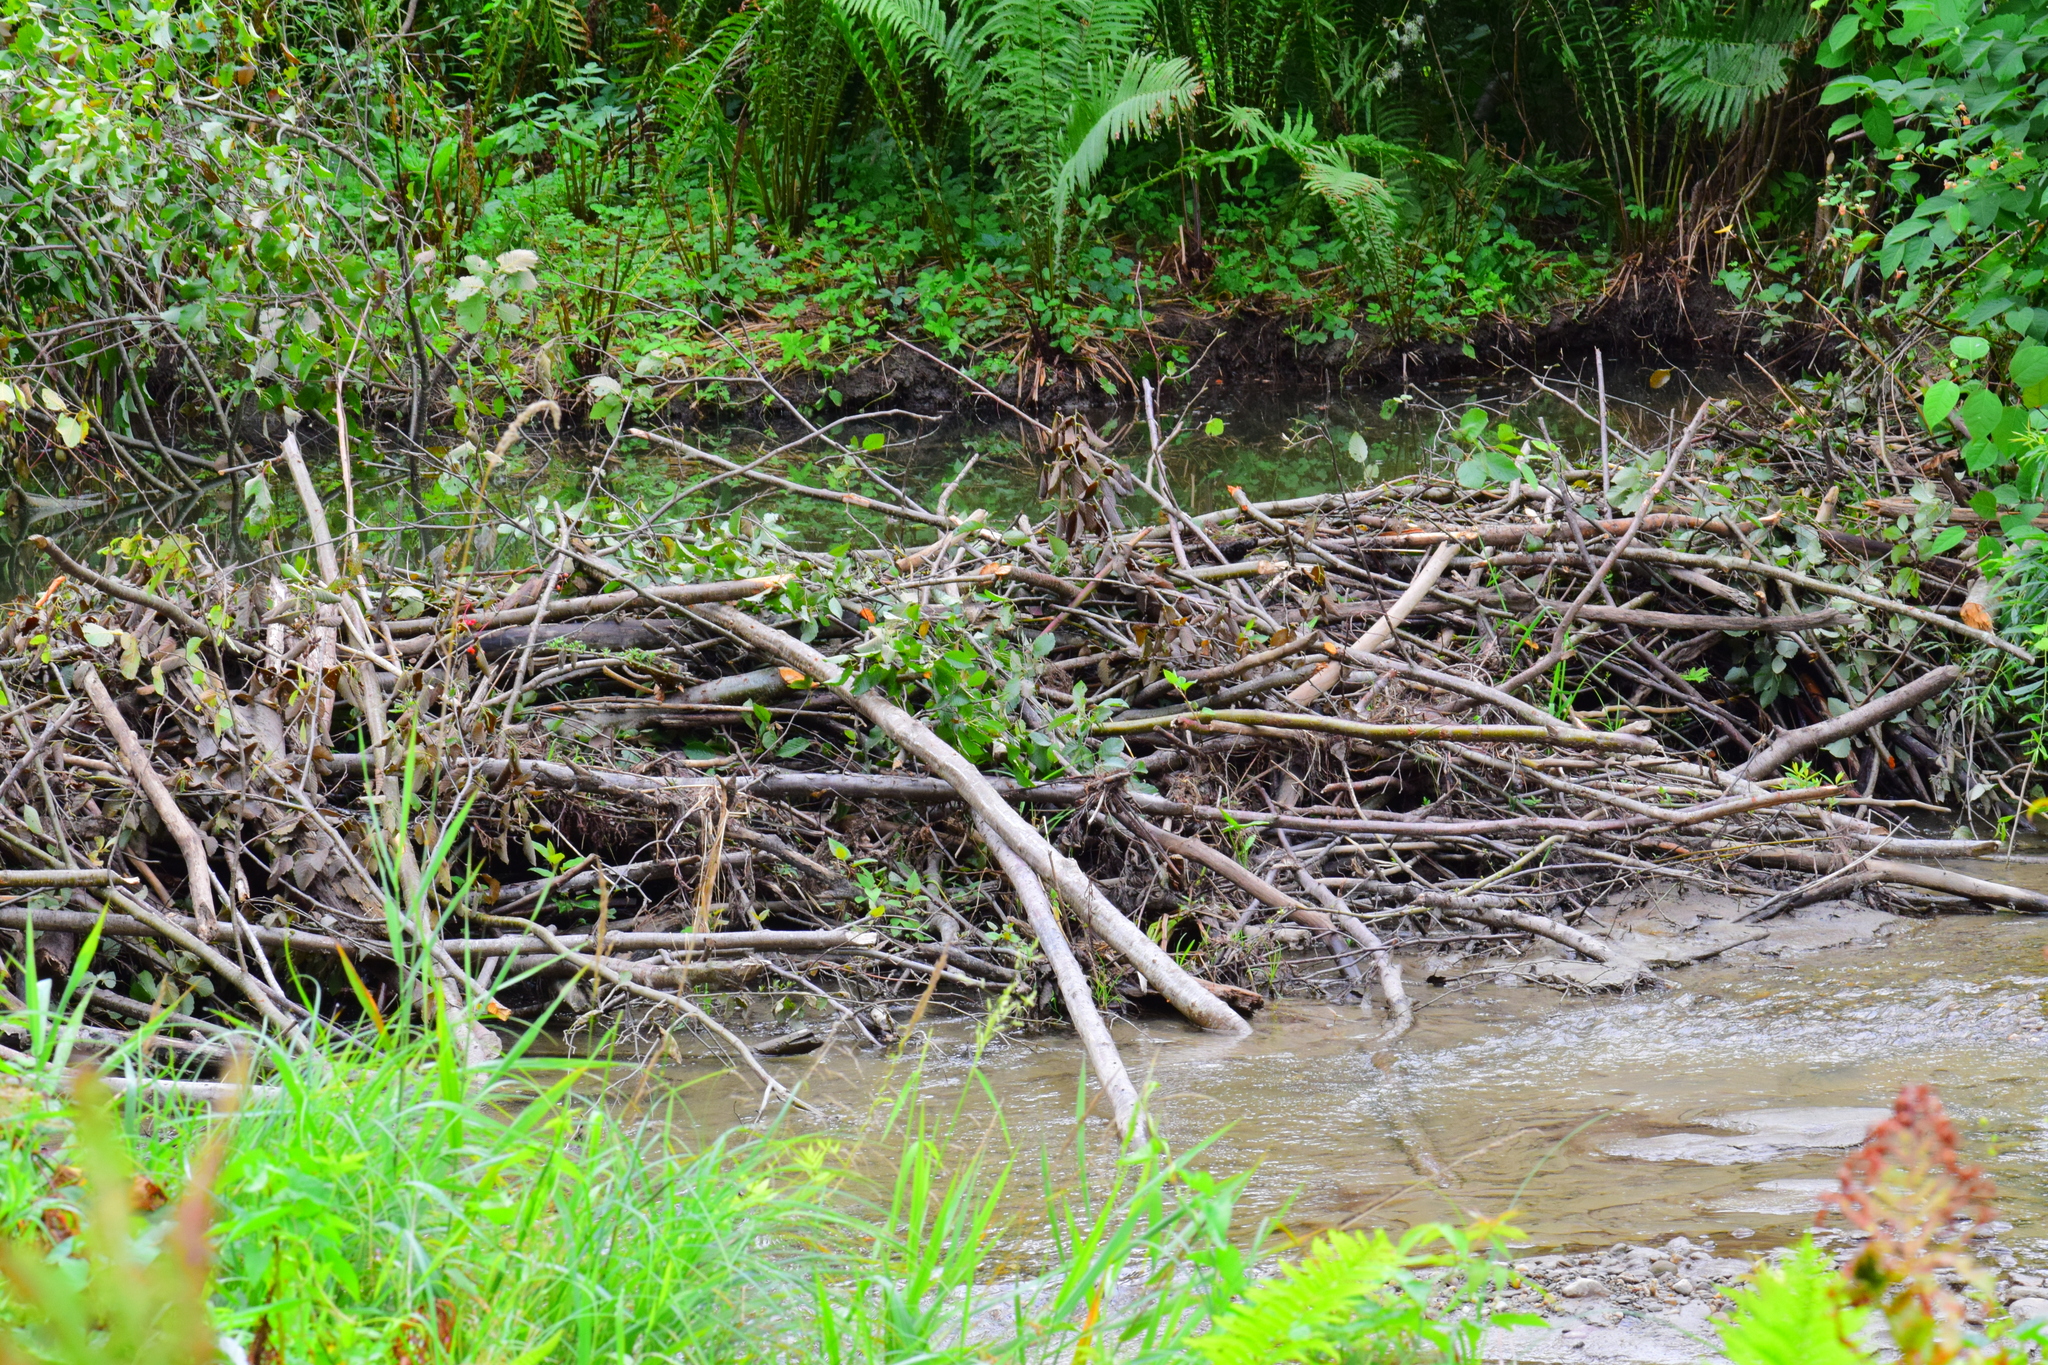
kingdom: Animalia
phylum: Chordata
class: Mammalia
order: Rodentia
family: Castoridae
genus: Castor
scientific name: Castor canadensis
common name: American beaver
